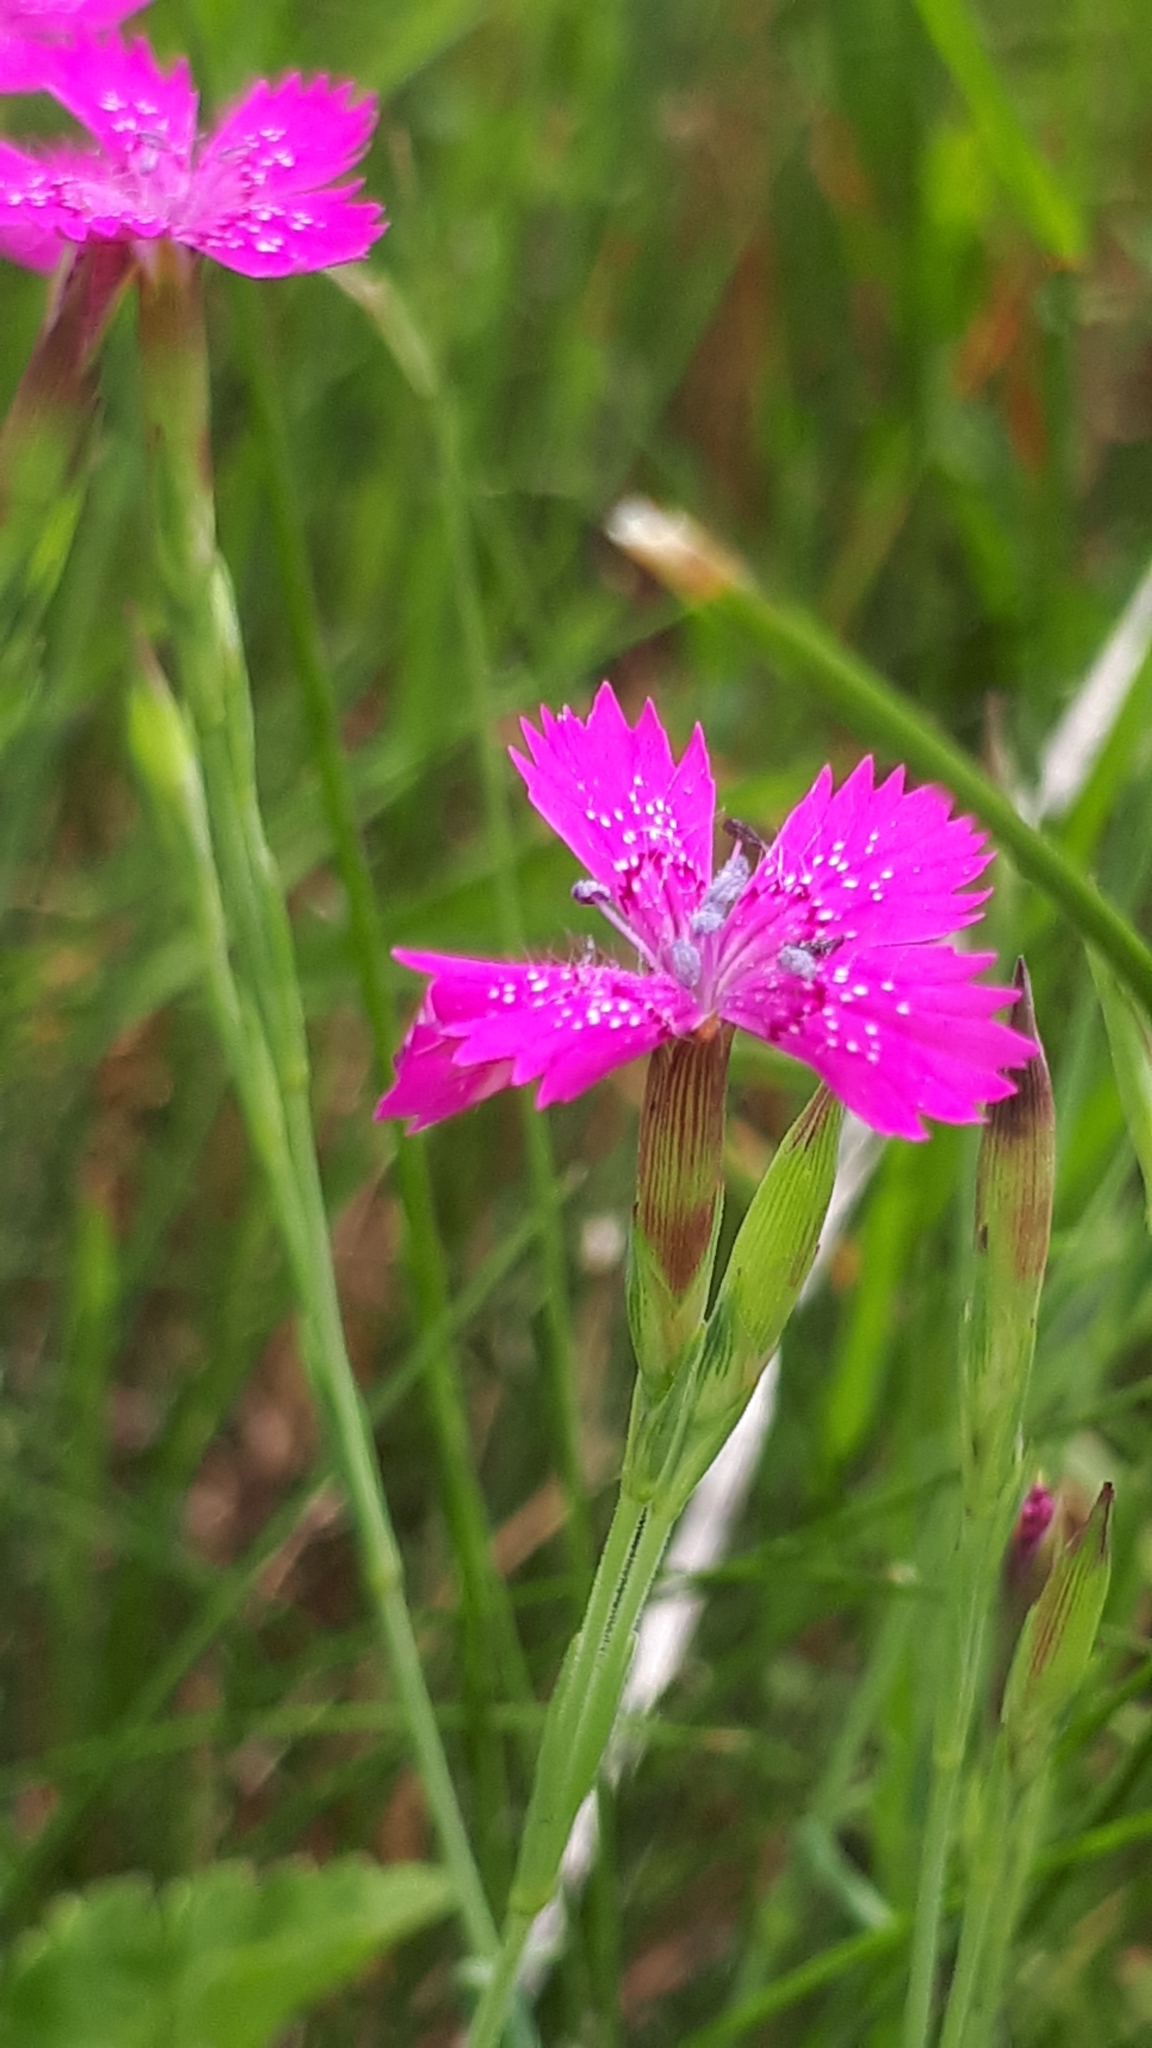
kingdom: Plantae
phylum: Tracheophyta
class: Magnoliopsida
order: Caryophyllales
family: Caryophyllaceae
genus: Dianthus
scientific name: Dianthus deltoides
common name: Maiden pink
